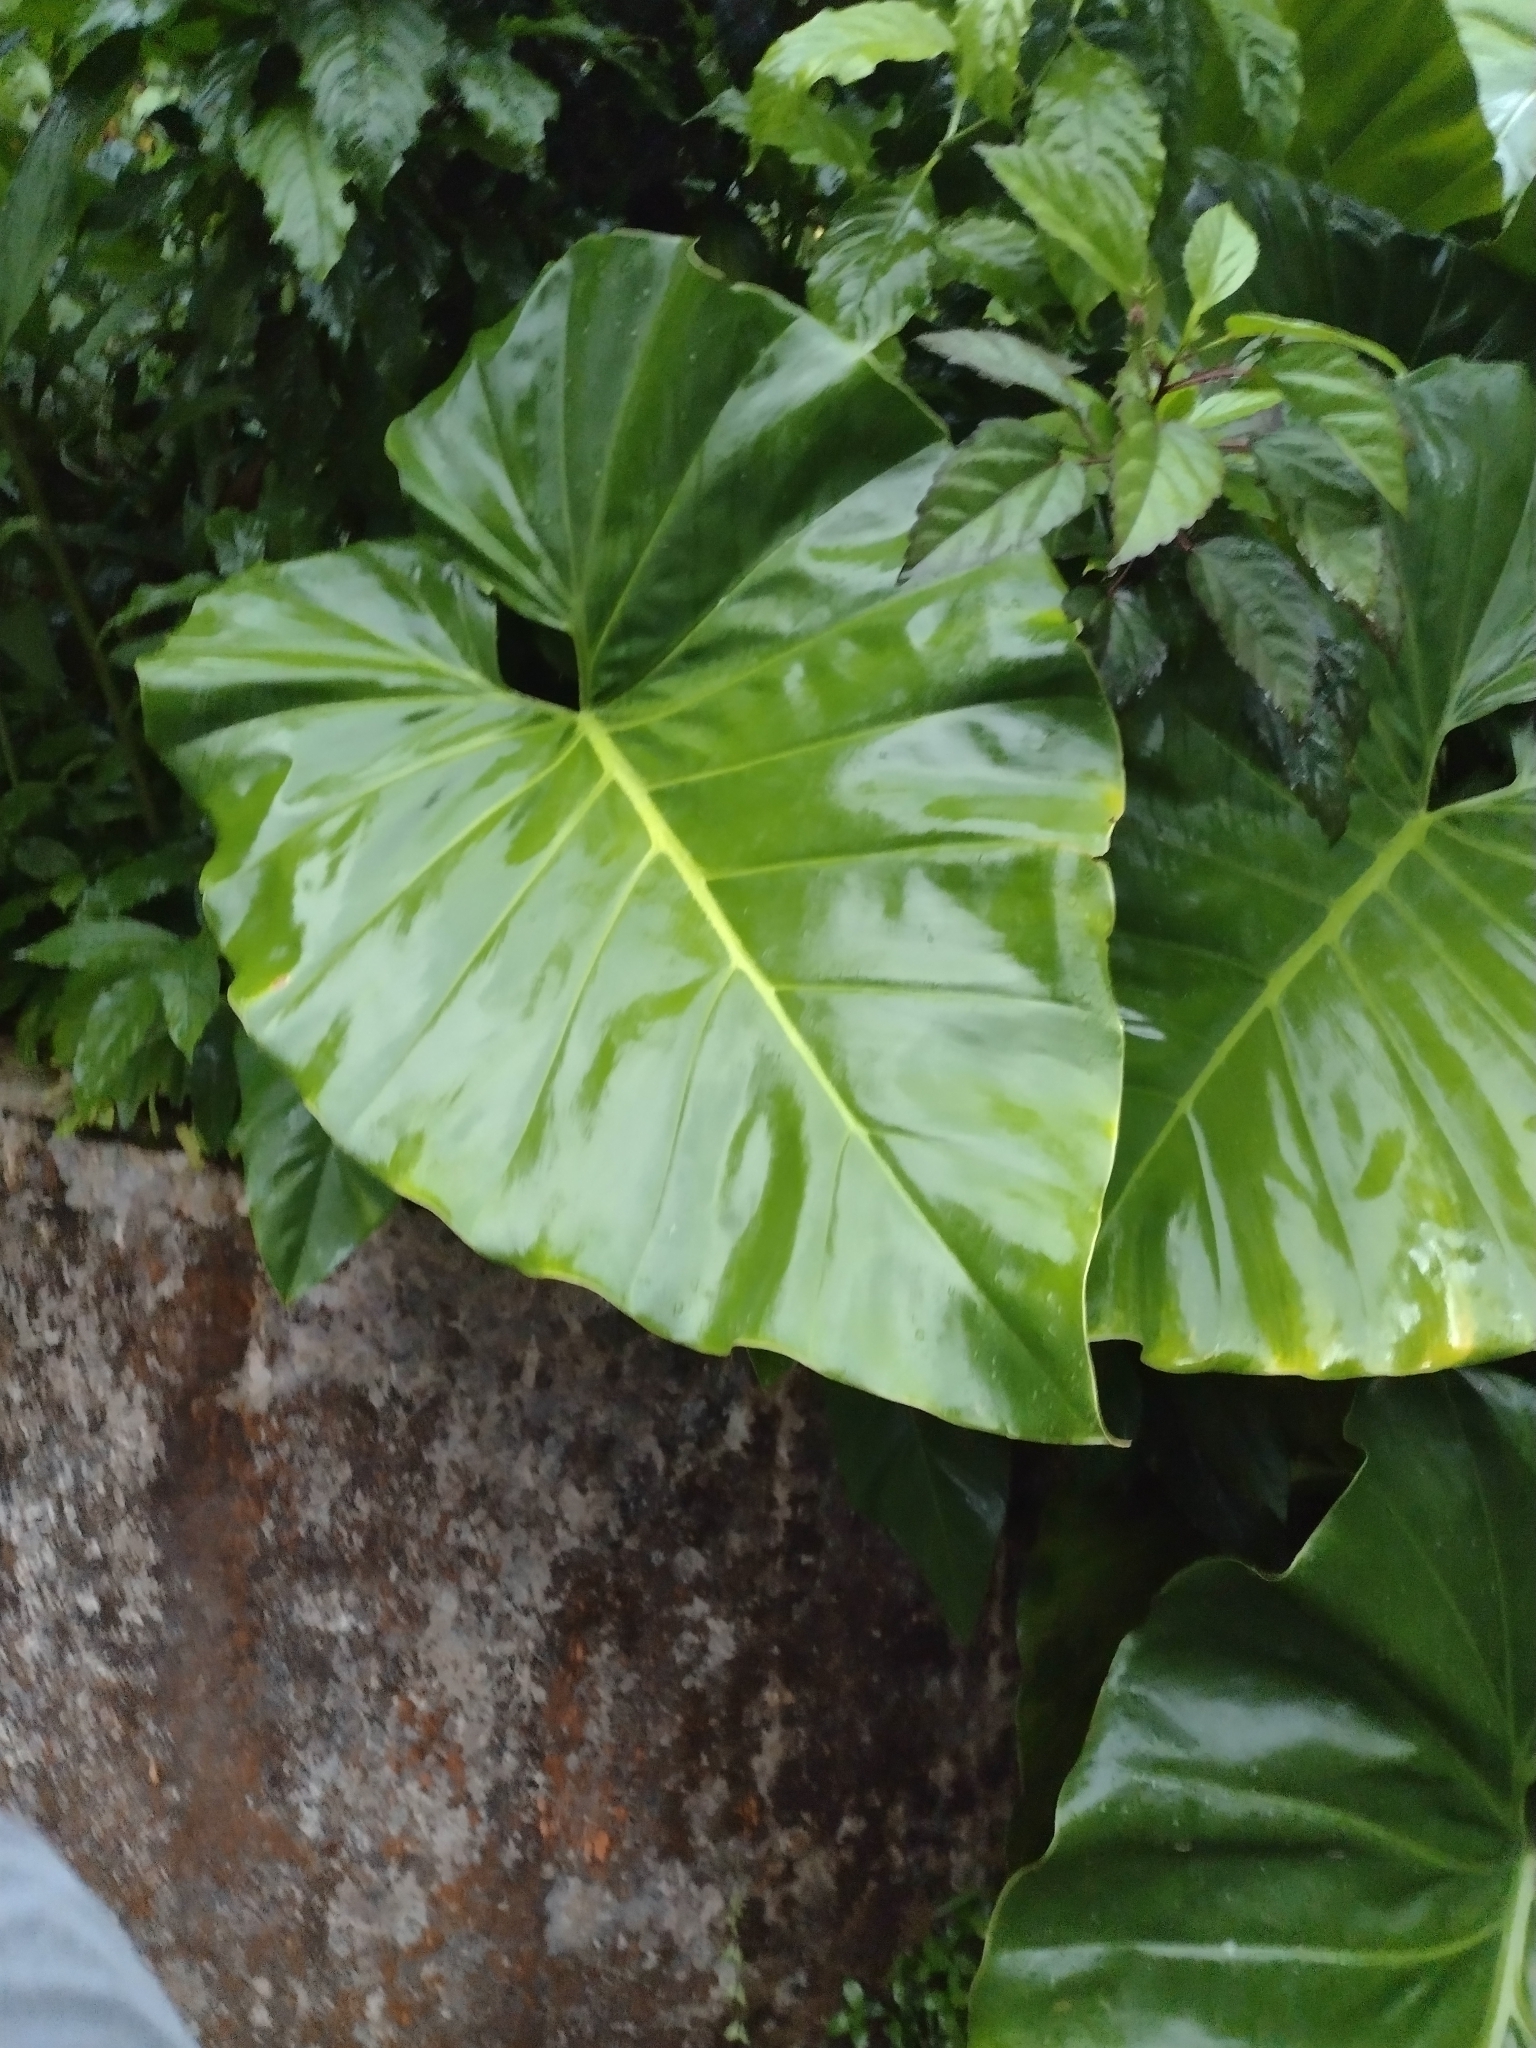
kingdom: Plantae
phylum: Tracheophyta
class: Liliopsida
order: Alismatales
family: Araceae
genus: Philodendron
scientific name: Philodendron giganteum
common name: Giant philodendron
